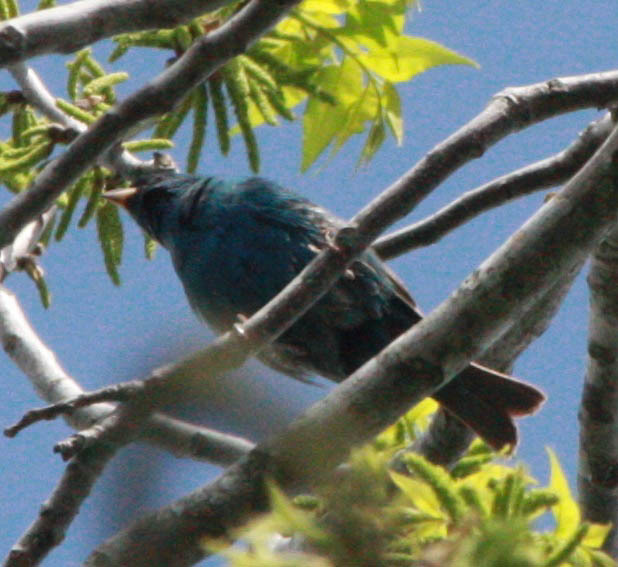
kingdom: Animalia
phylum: Chordata
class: Aves
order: Passeriformes
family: Cardinalidae
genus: Passerina
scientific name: Passerina cyanea
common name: Indigo bunting
